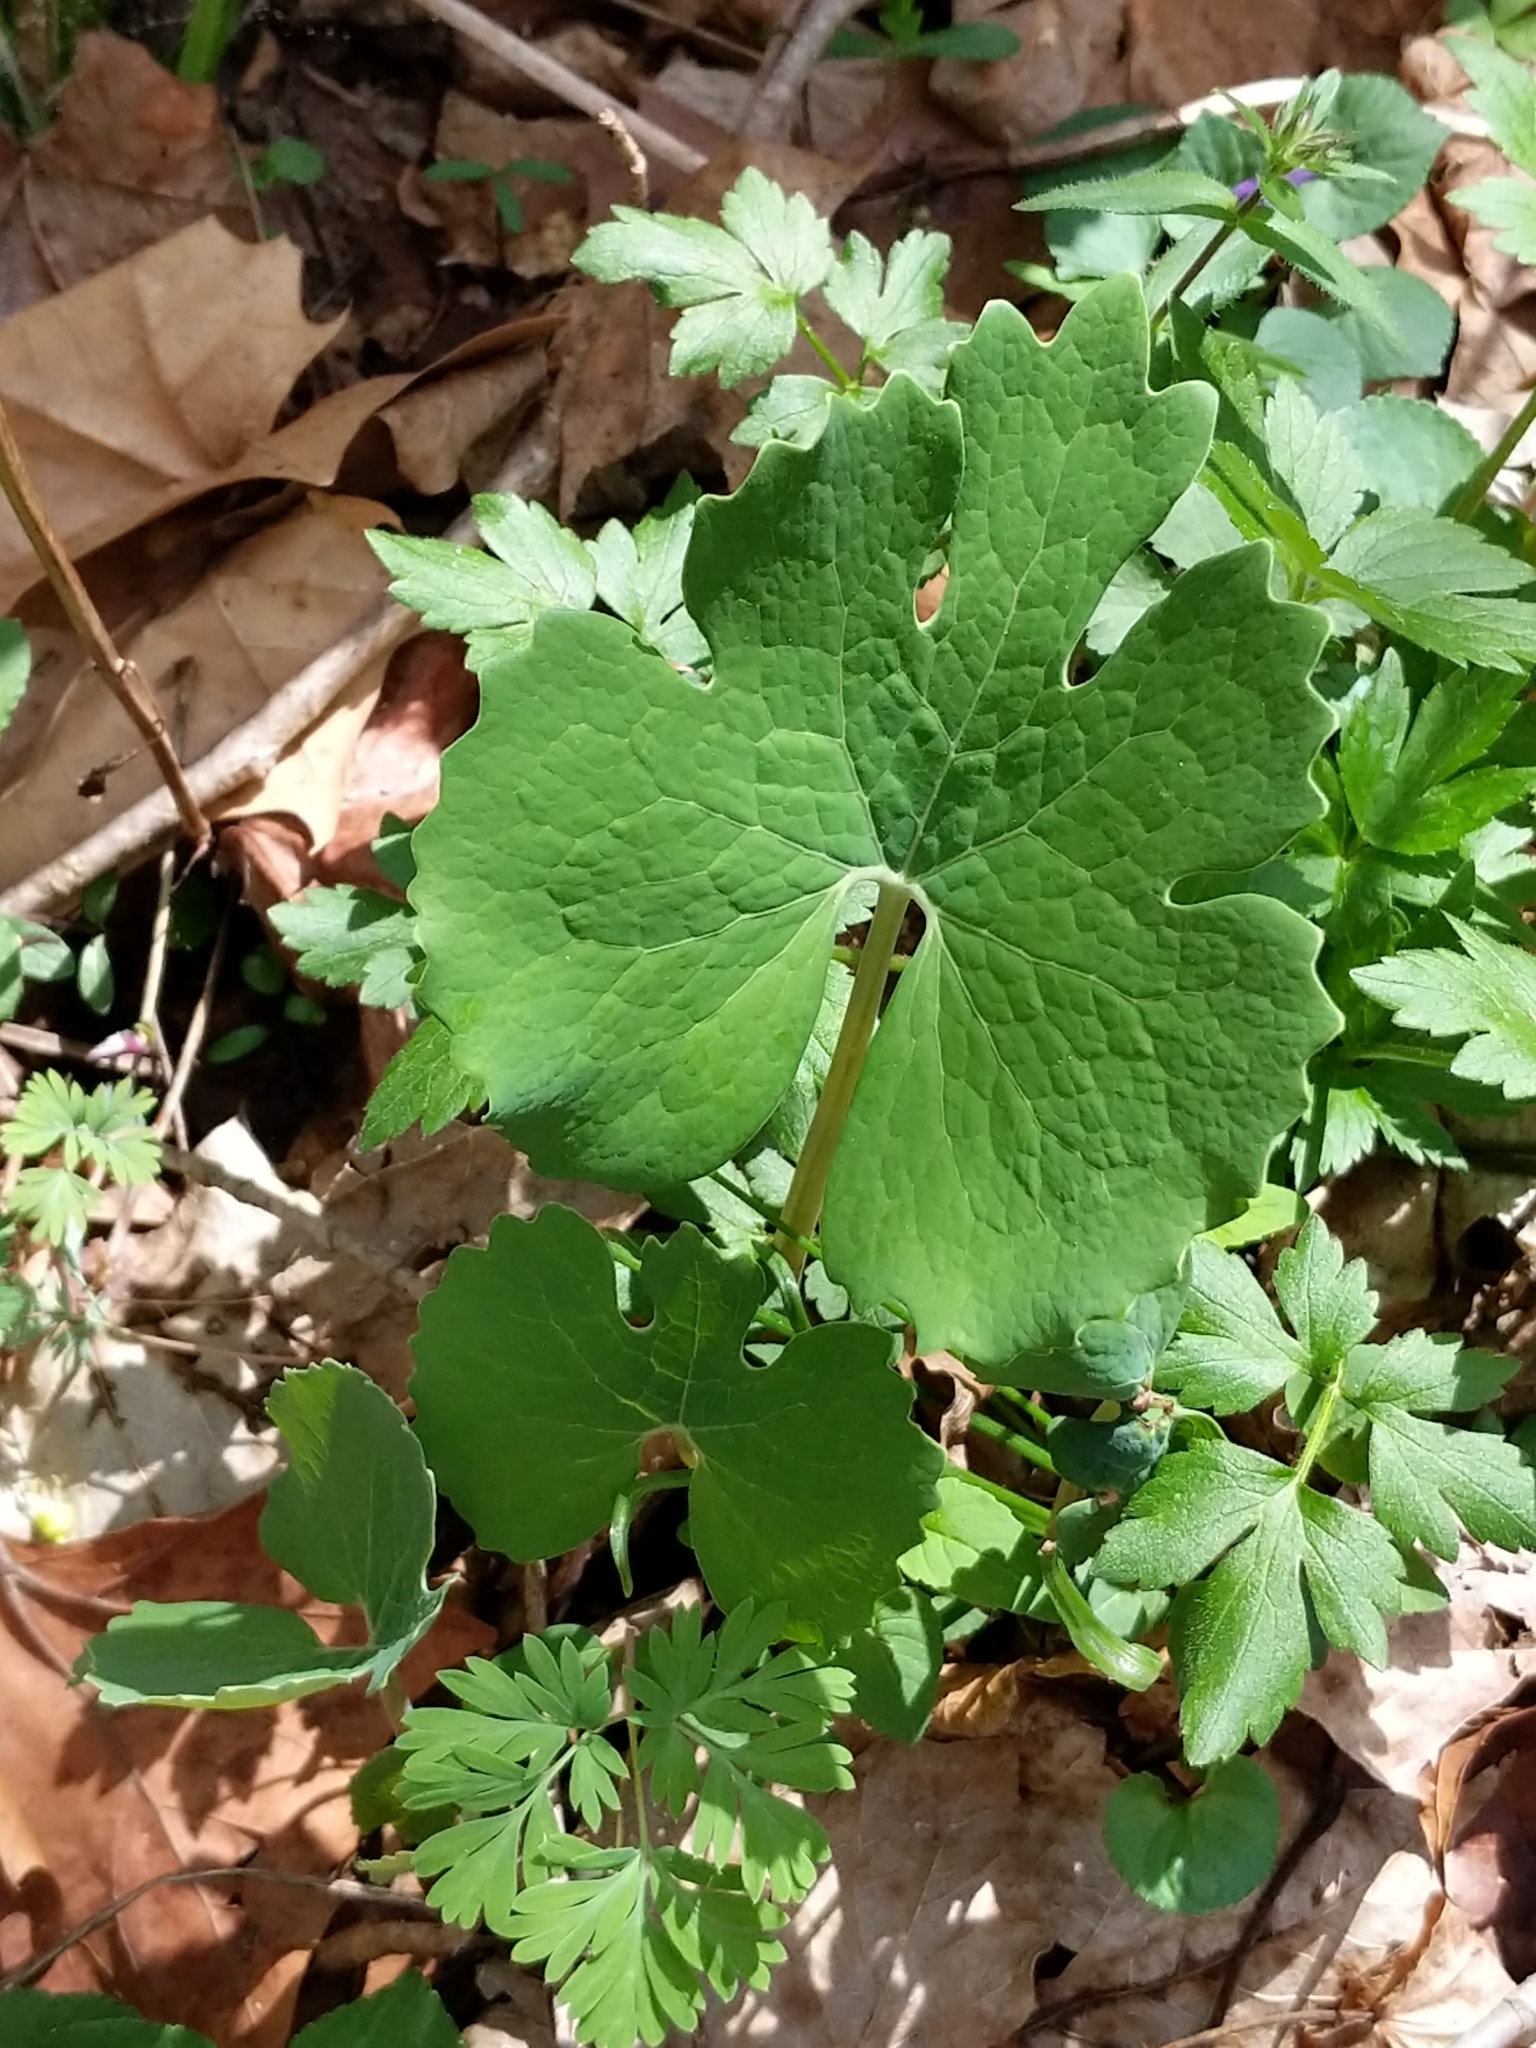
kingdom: Plantae
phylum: Tracheophyta
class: Magnoliopsida
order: Ranunculales
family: Papaveraceae
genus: Sanguinaria
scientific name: Sanguinaria canadensis
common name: Bloodroot
